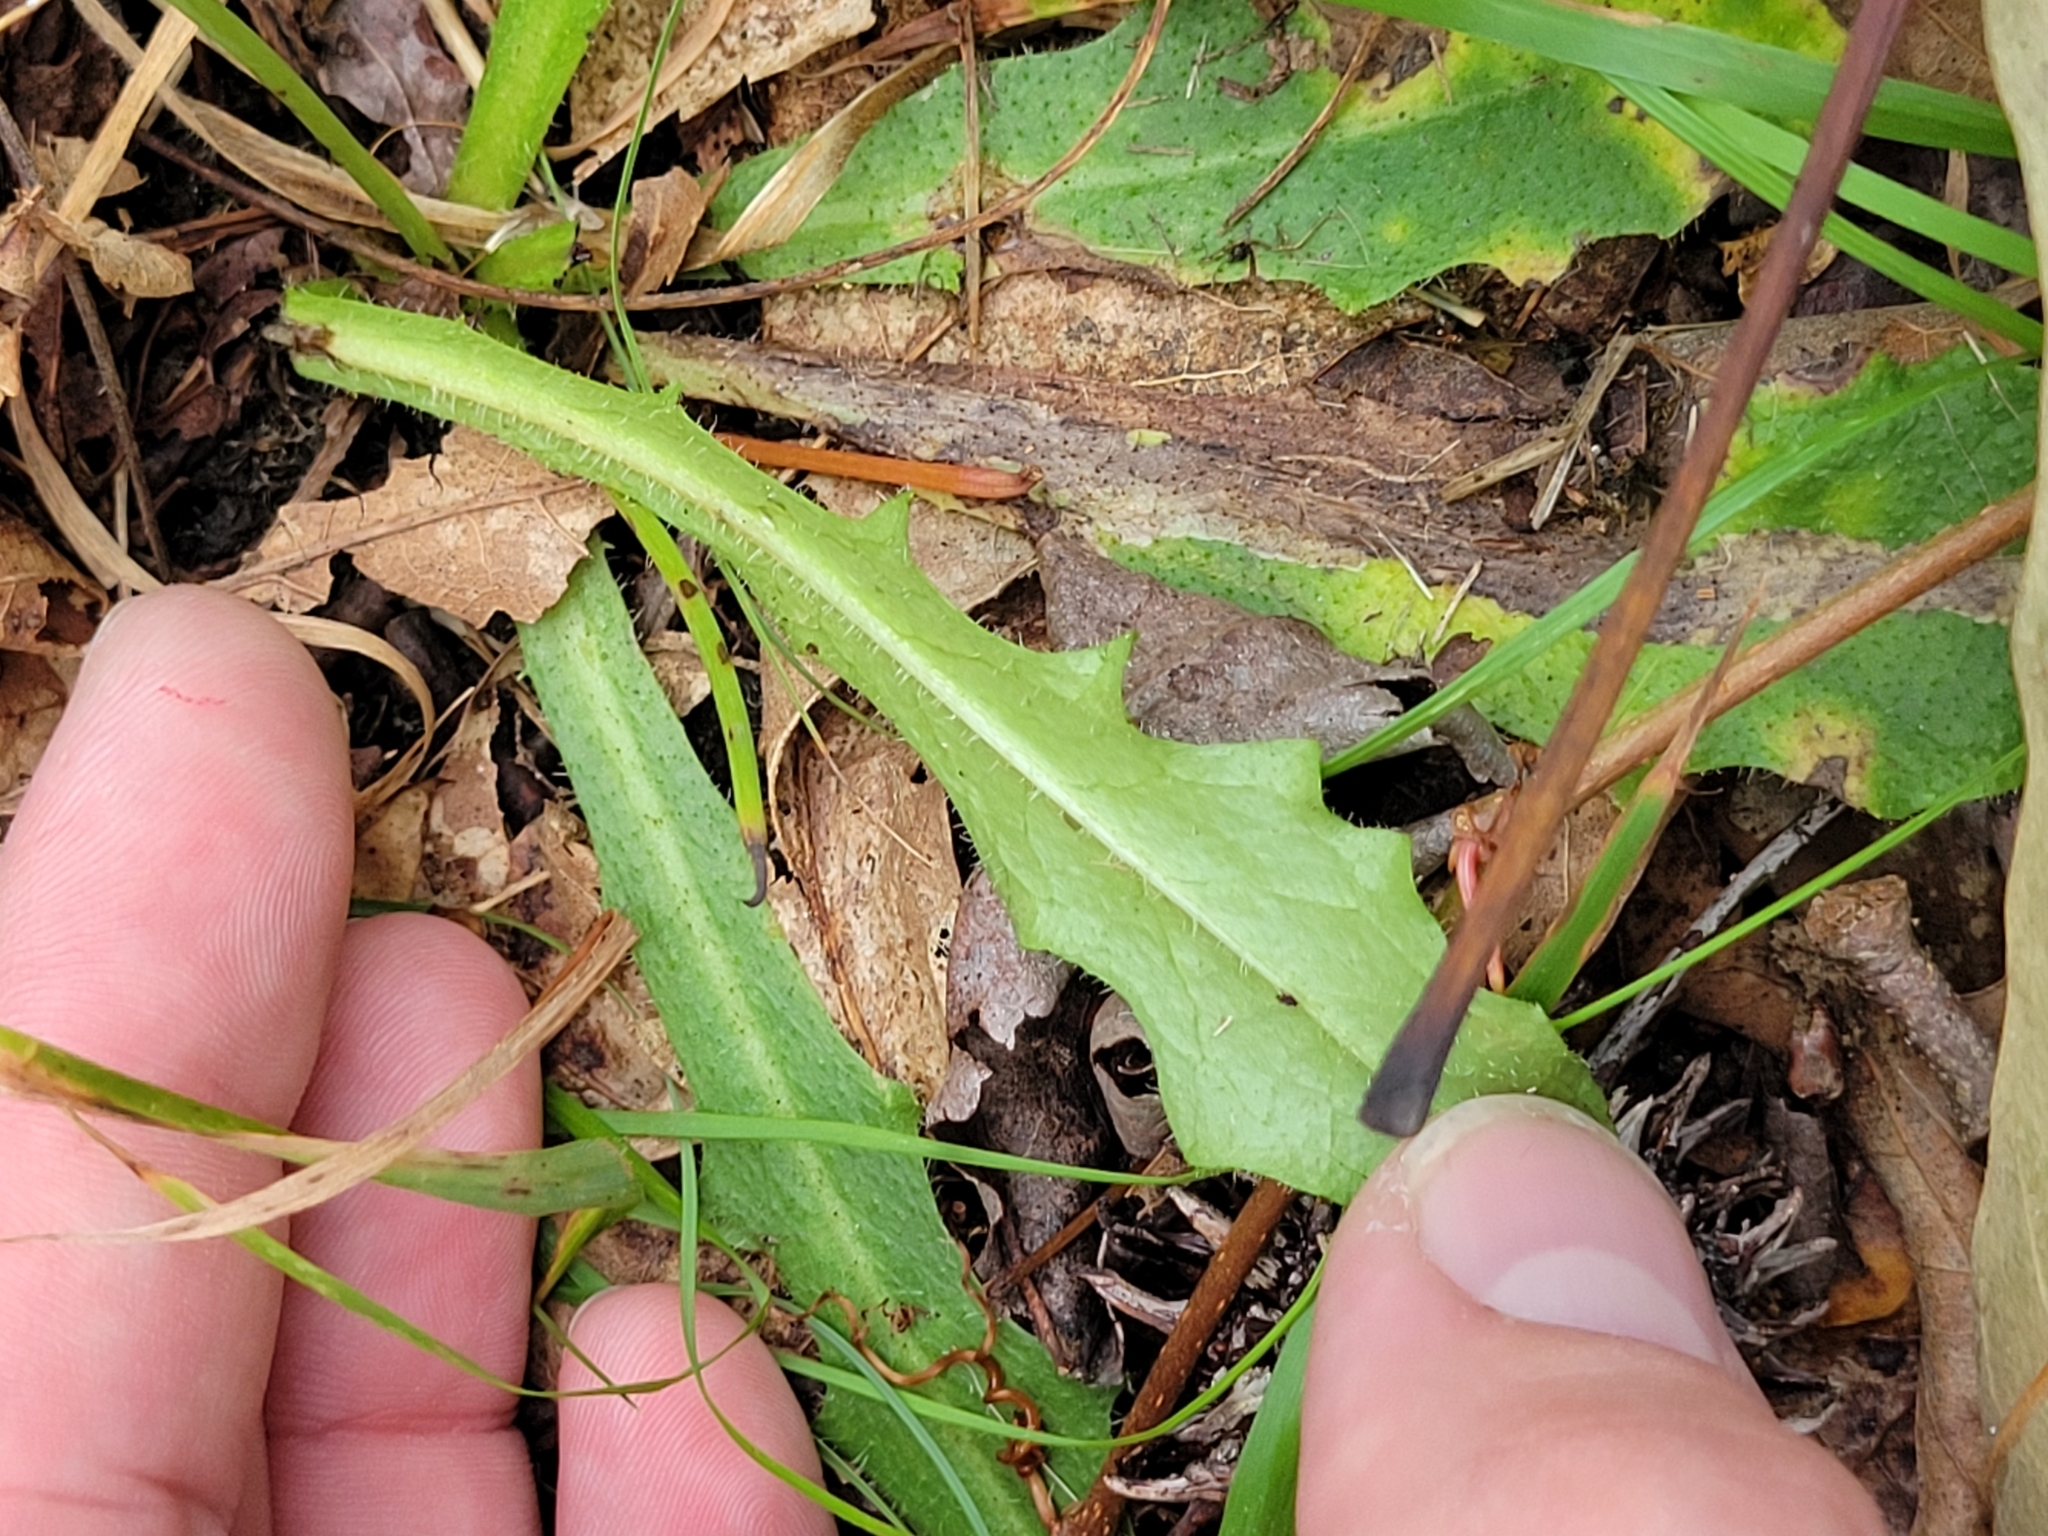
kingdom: Plantae
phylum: Tracheophyta
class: Magnoliopsida
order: Asterales
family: Asteraceae
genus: Hypochaeris
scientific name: Hypochaeris radicata
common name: Flatweed
